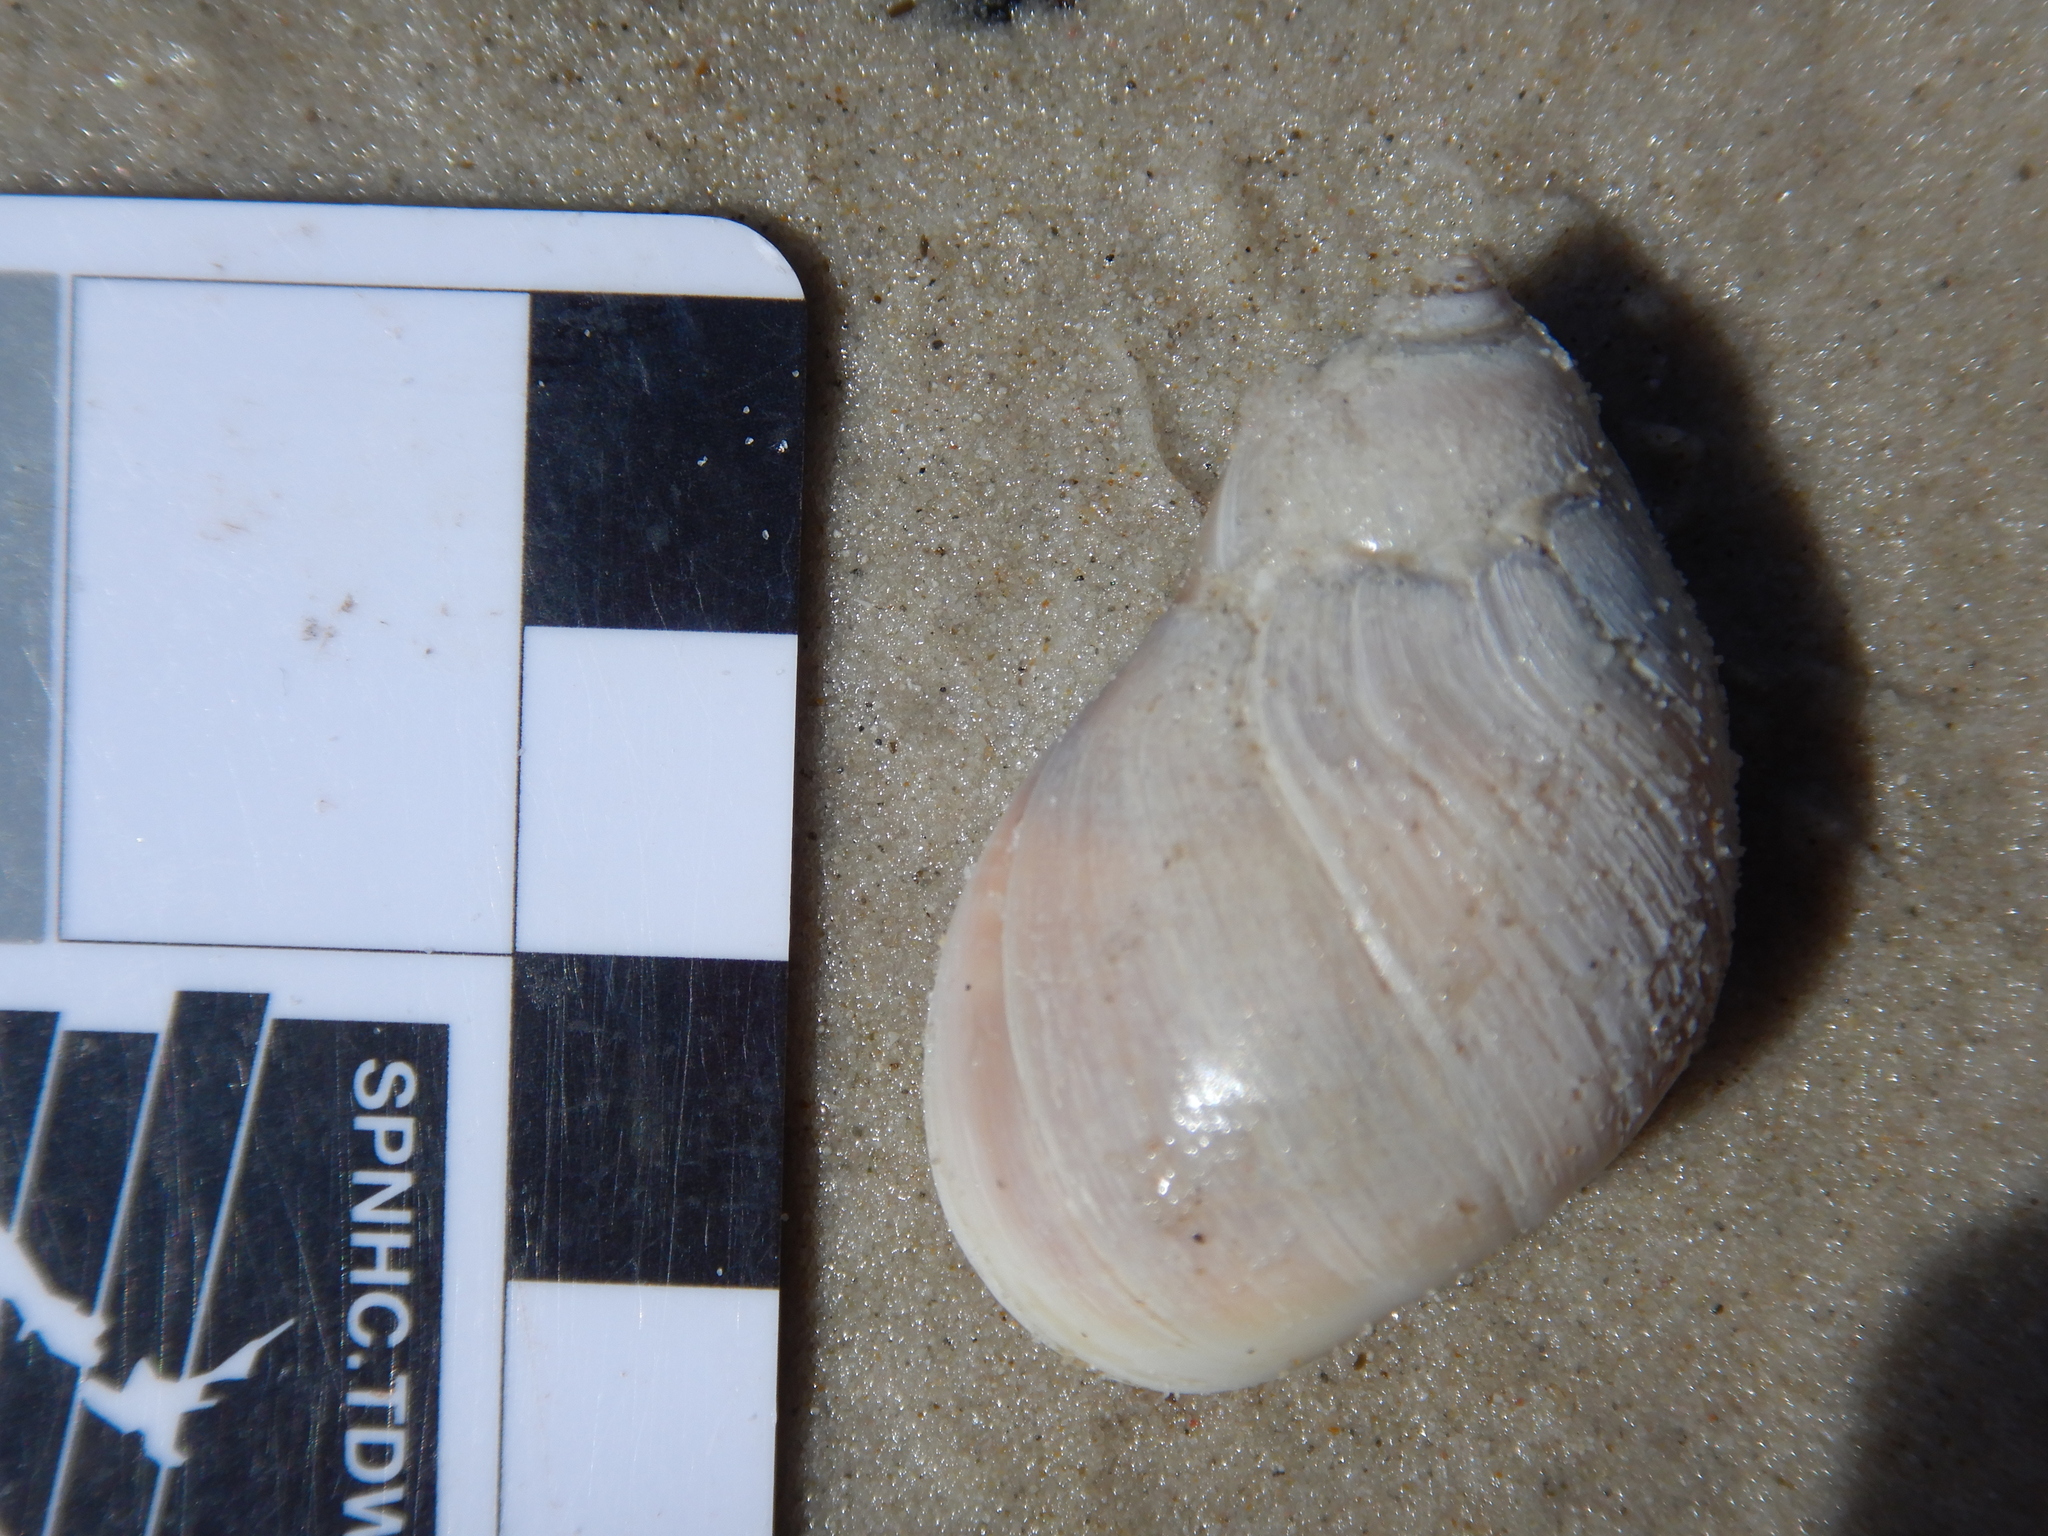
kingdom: Animalia
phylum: Mollusca
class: Gastropoda
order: Littorinimorpha
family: Naticidae
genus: Conuber
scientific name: Conuber conicum
